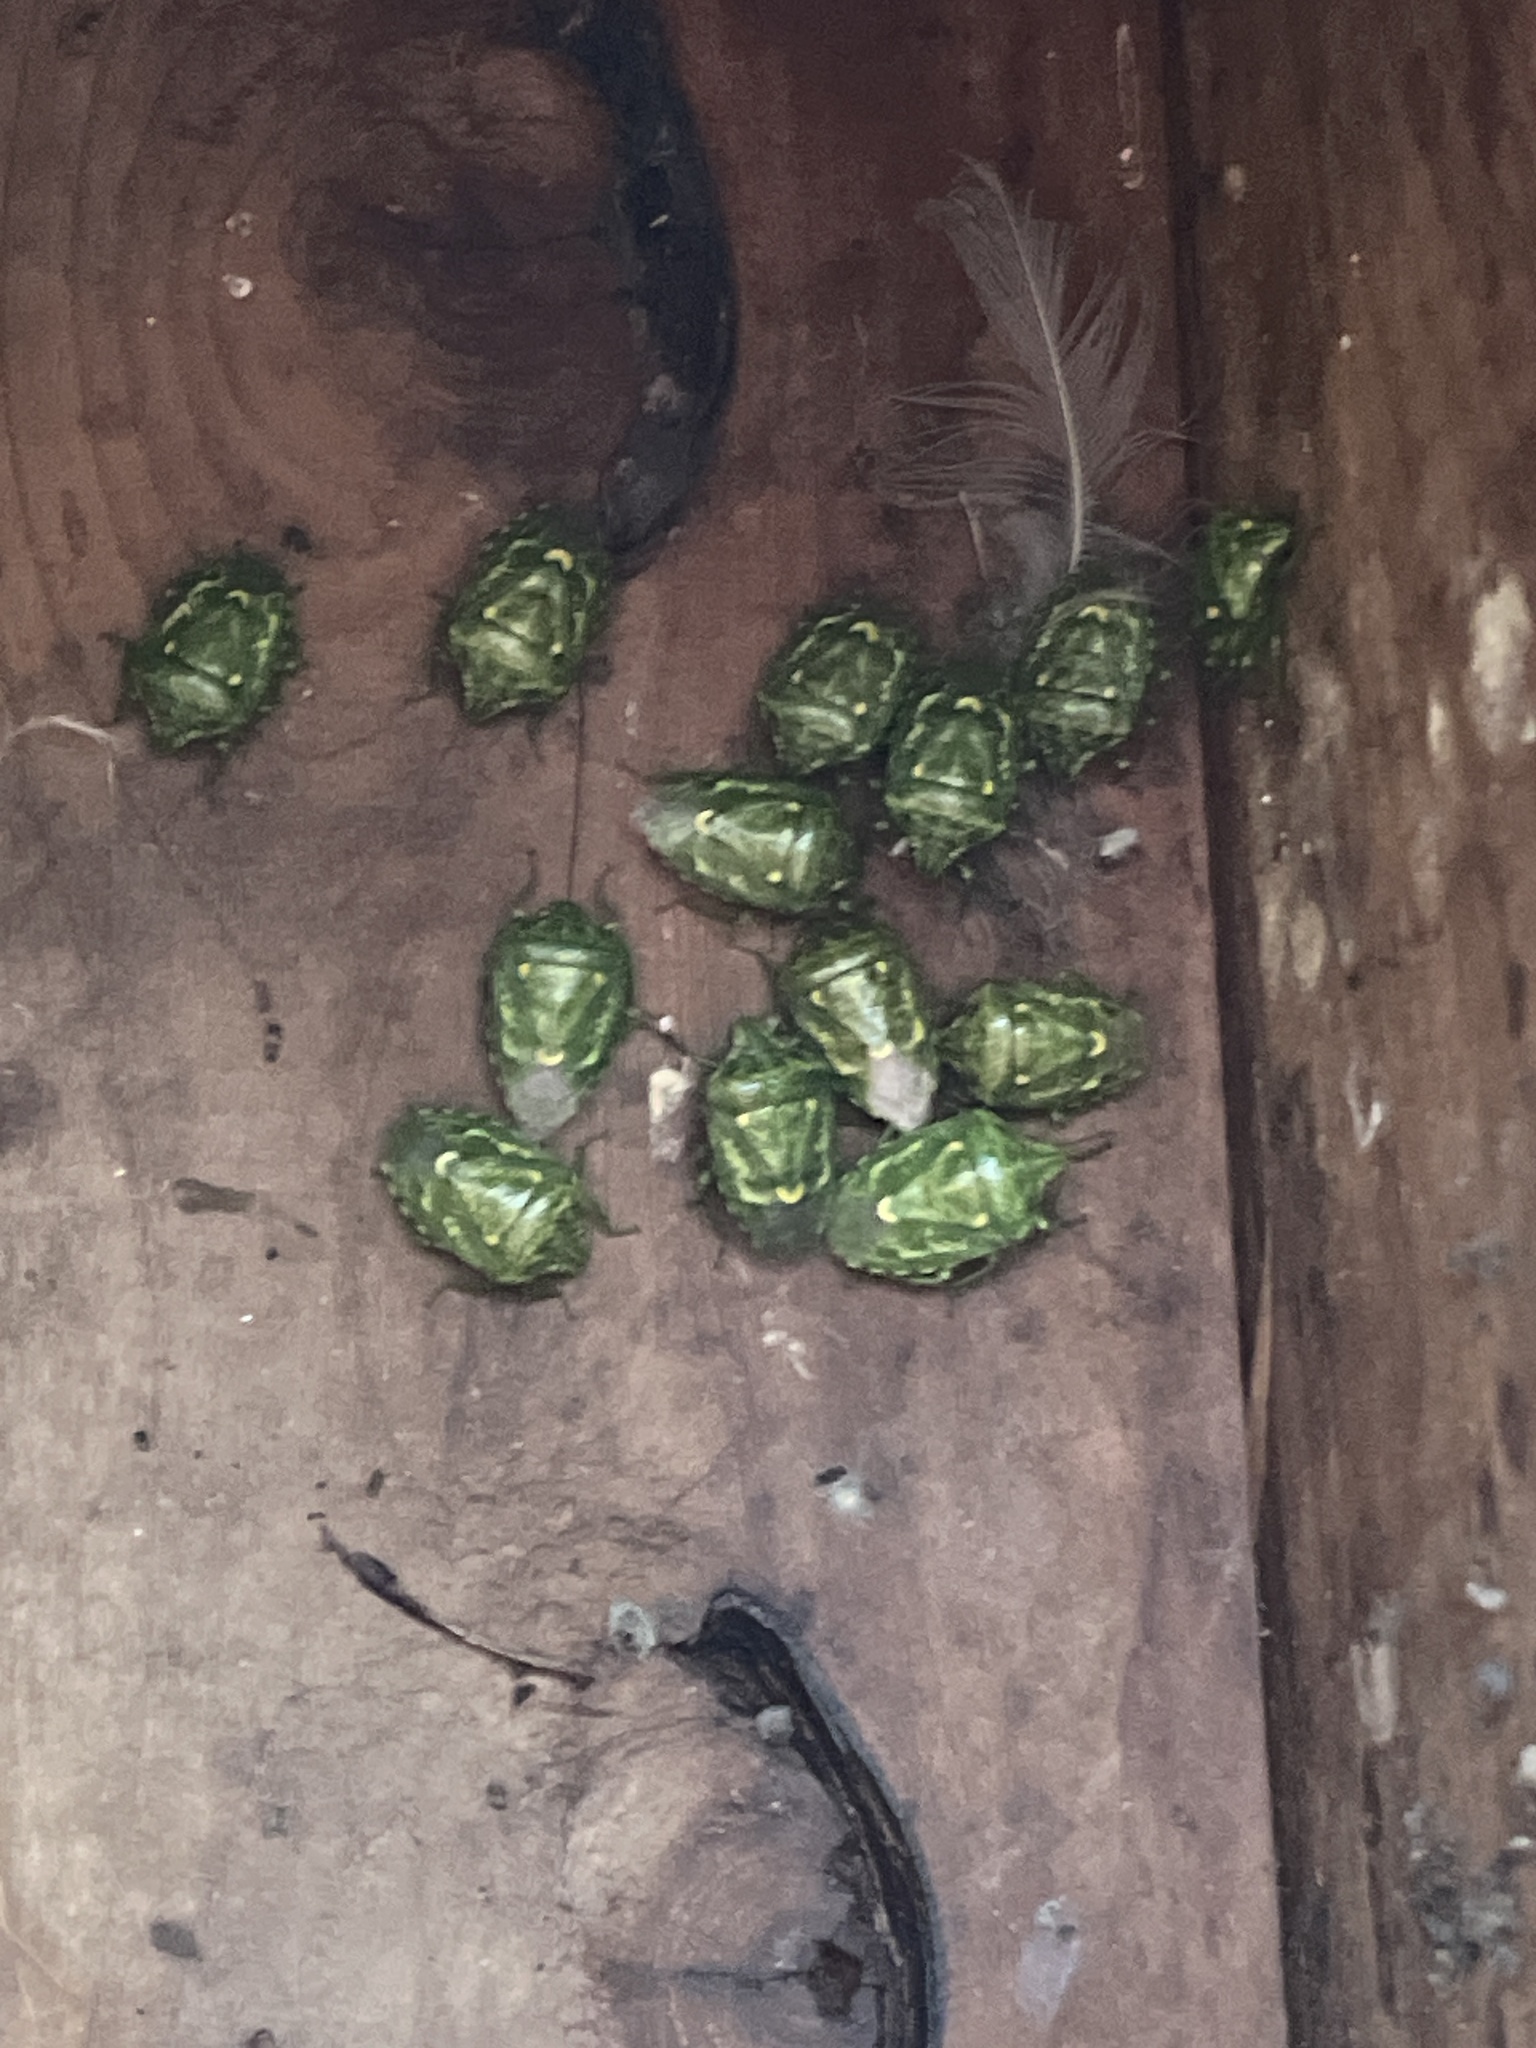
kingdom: Animalia
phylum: Arthropoda
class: Insecta
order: Hemiptera
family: Pentatomidae
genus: Banasa
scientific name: Banasa euchlora
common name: Cedar berry bug
